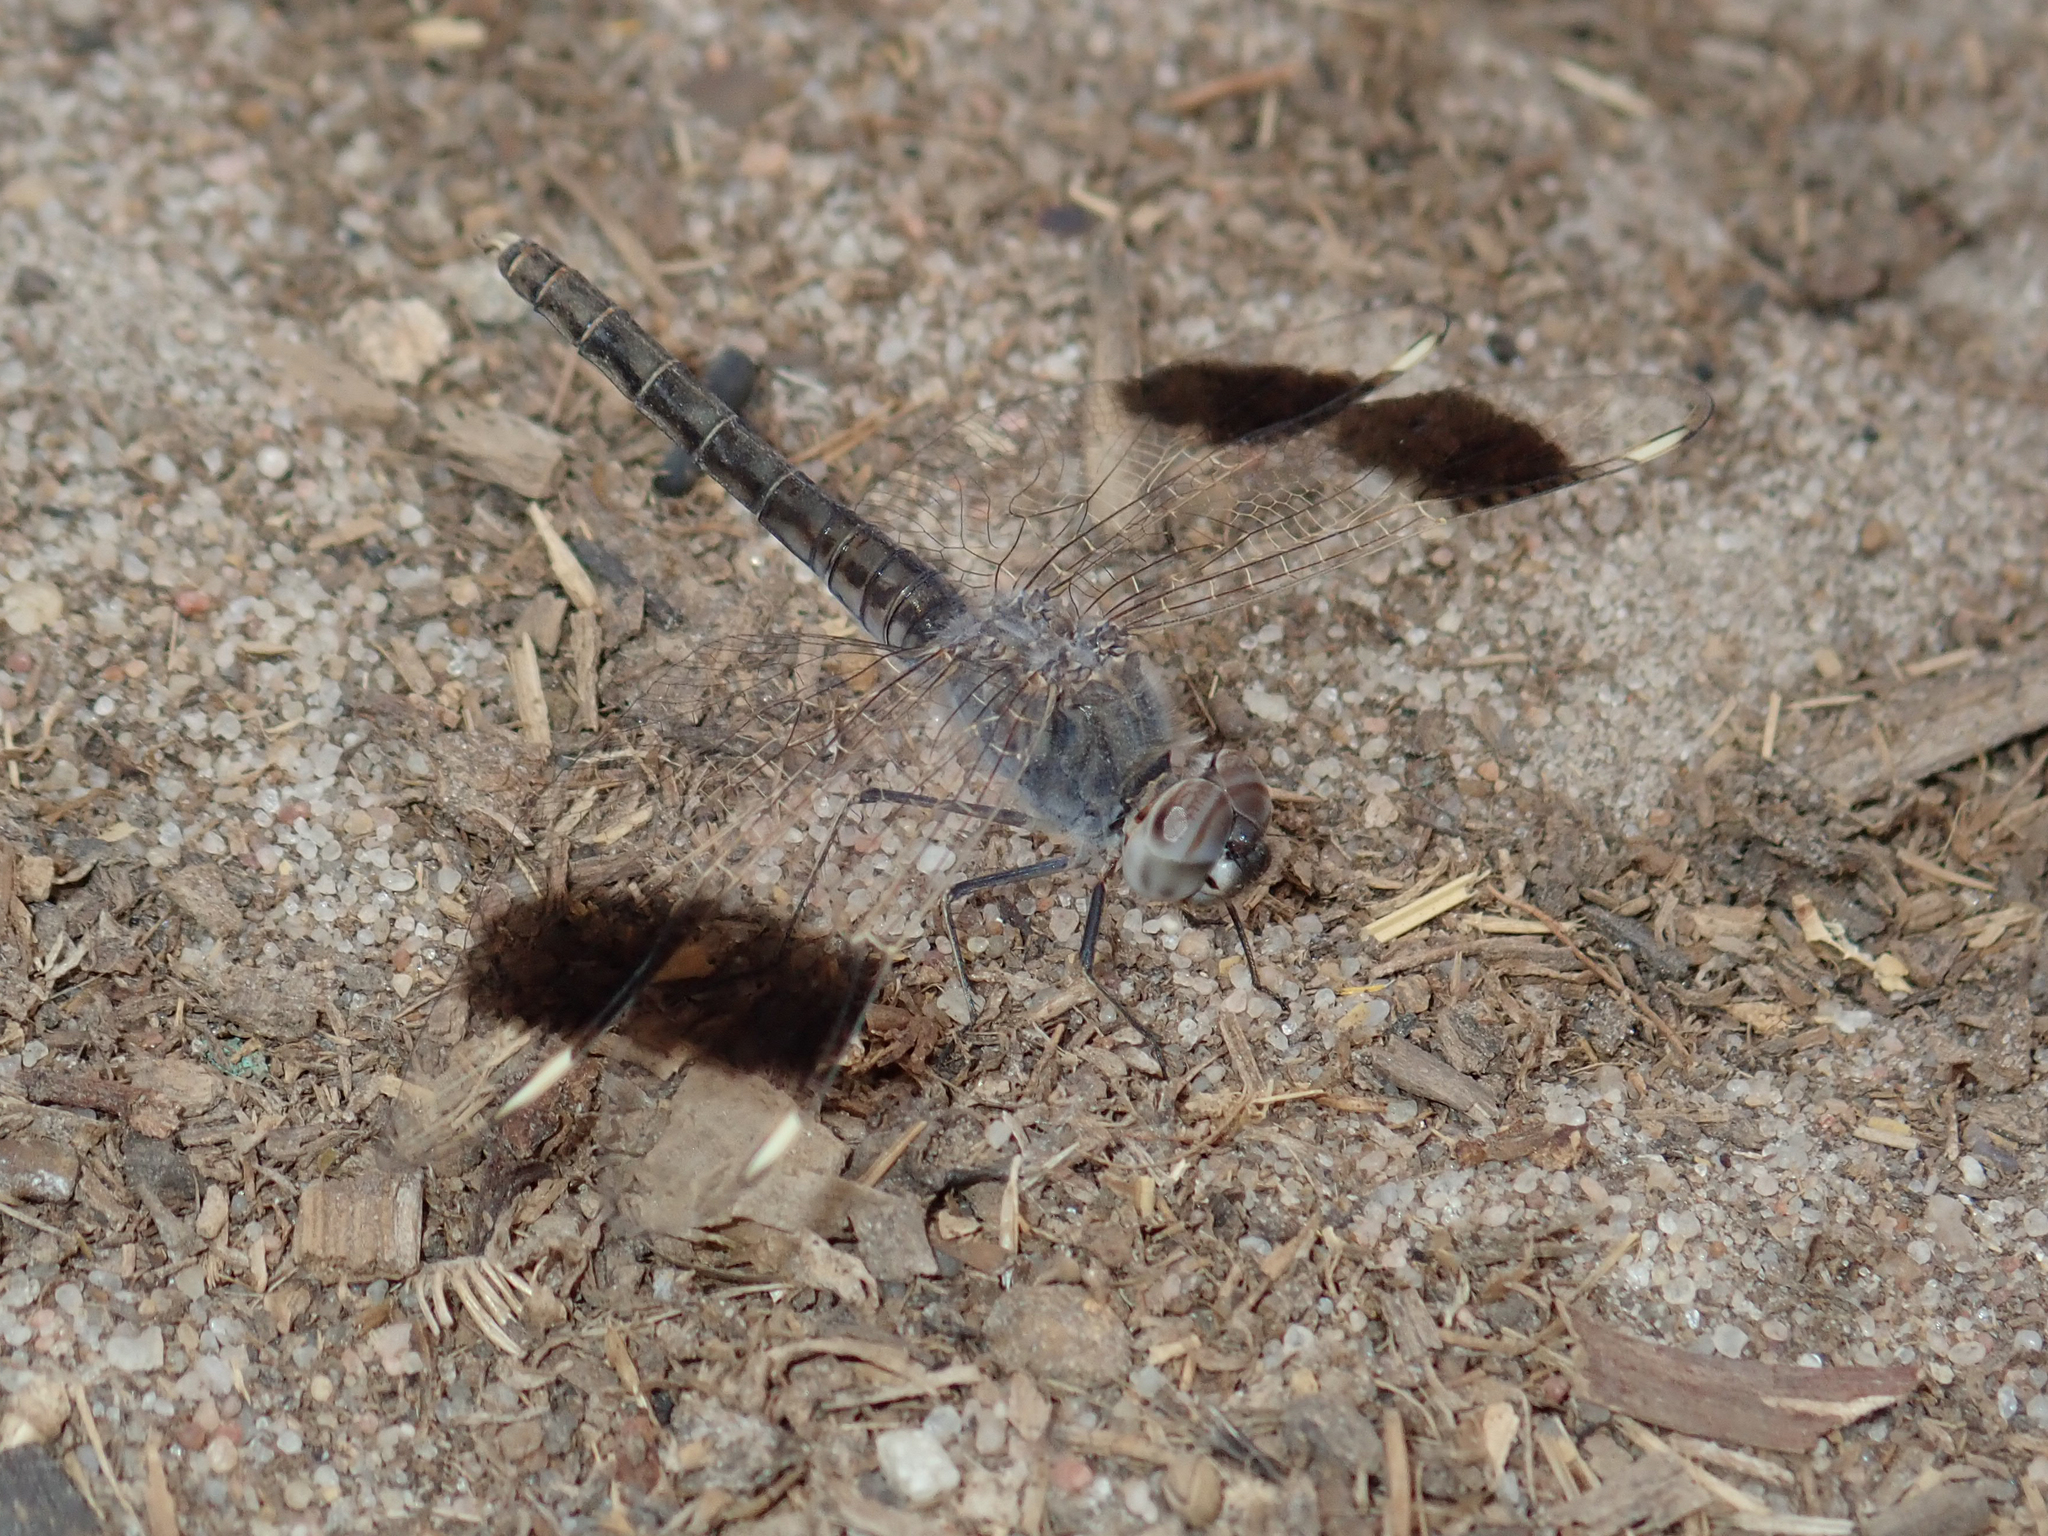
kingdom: Animalia
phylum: Arthropoda
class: Insecta
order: Odonata
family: Libellulidae
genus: Brachythemis
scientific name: Brachythemis impartita
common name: Banded groundling
